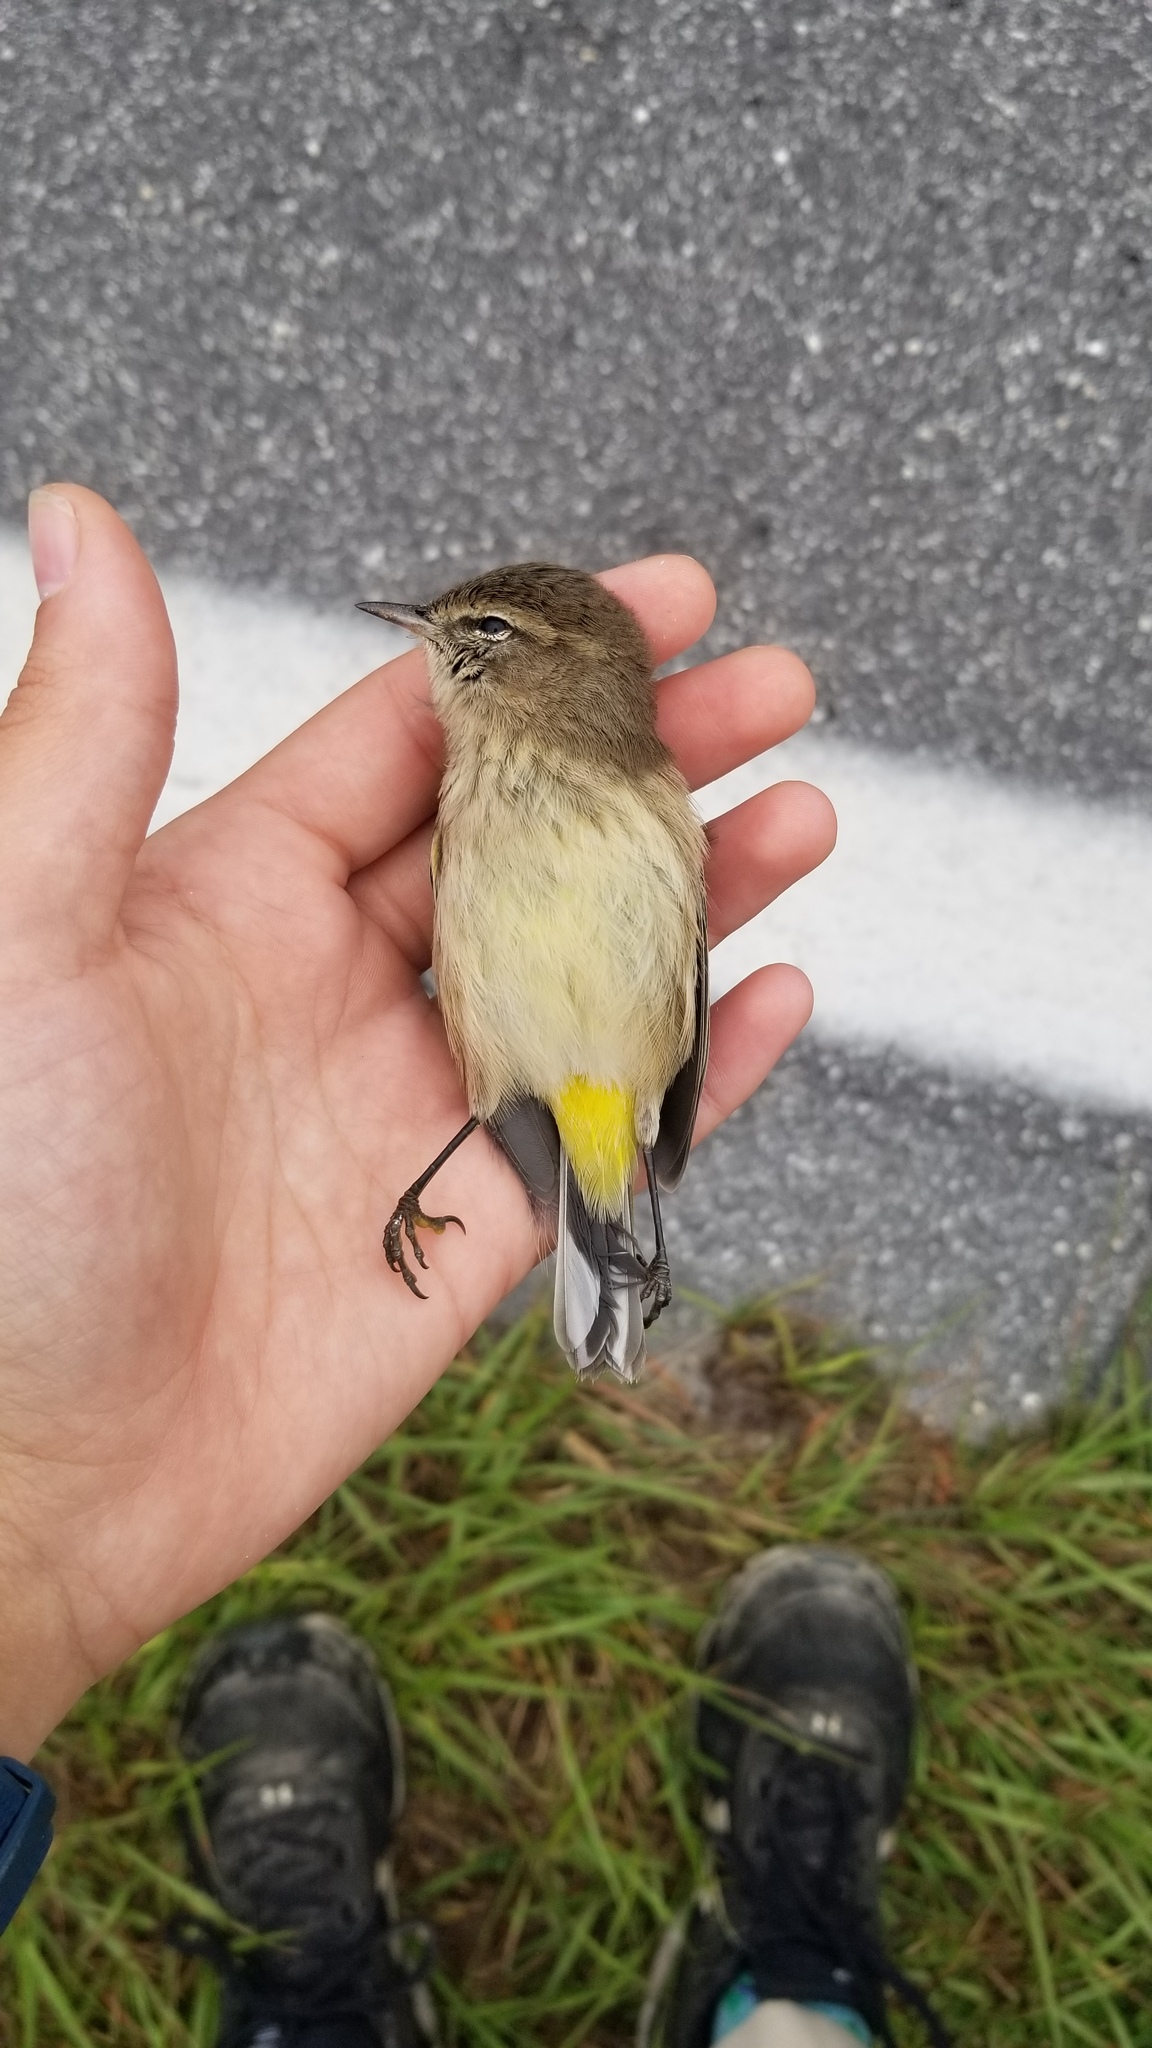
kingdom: Animalia
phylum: Chordata
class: Aves
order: Passeriformes
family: Parulidae
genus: Setophaga
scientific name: Setophaga palmarum
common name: Palm warbler
